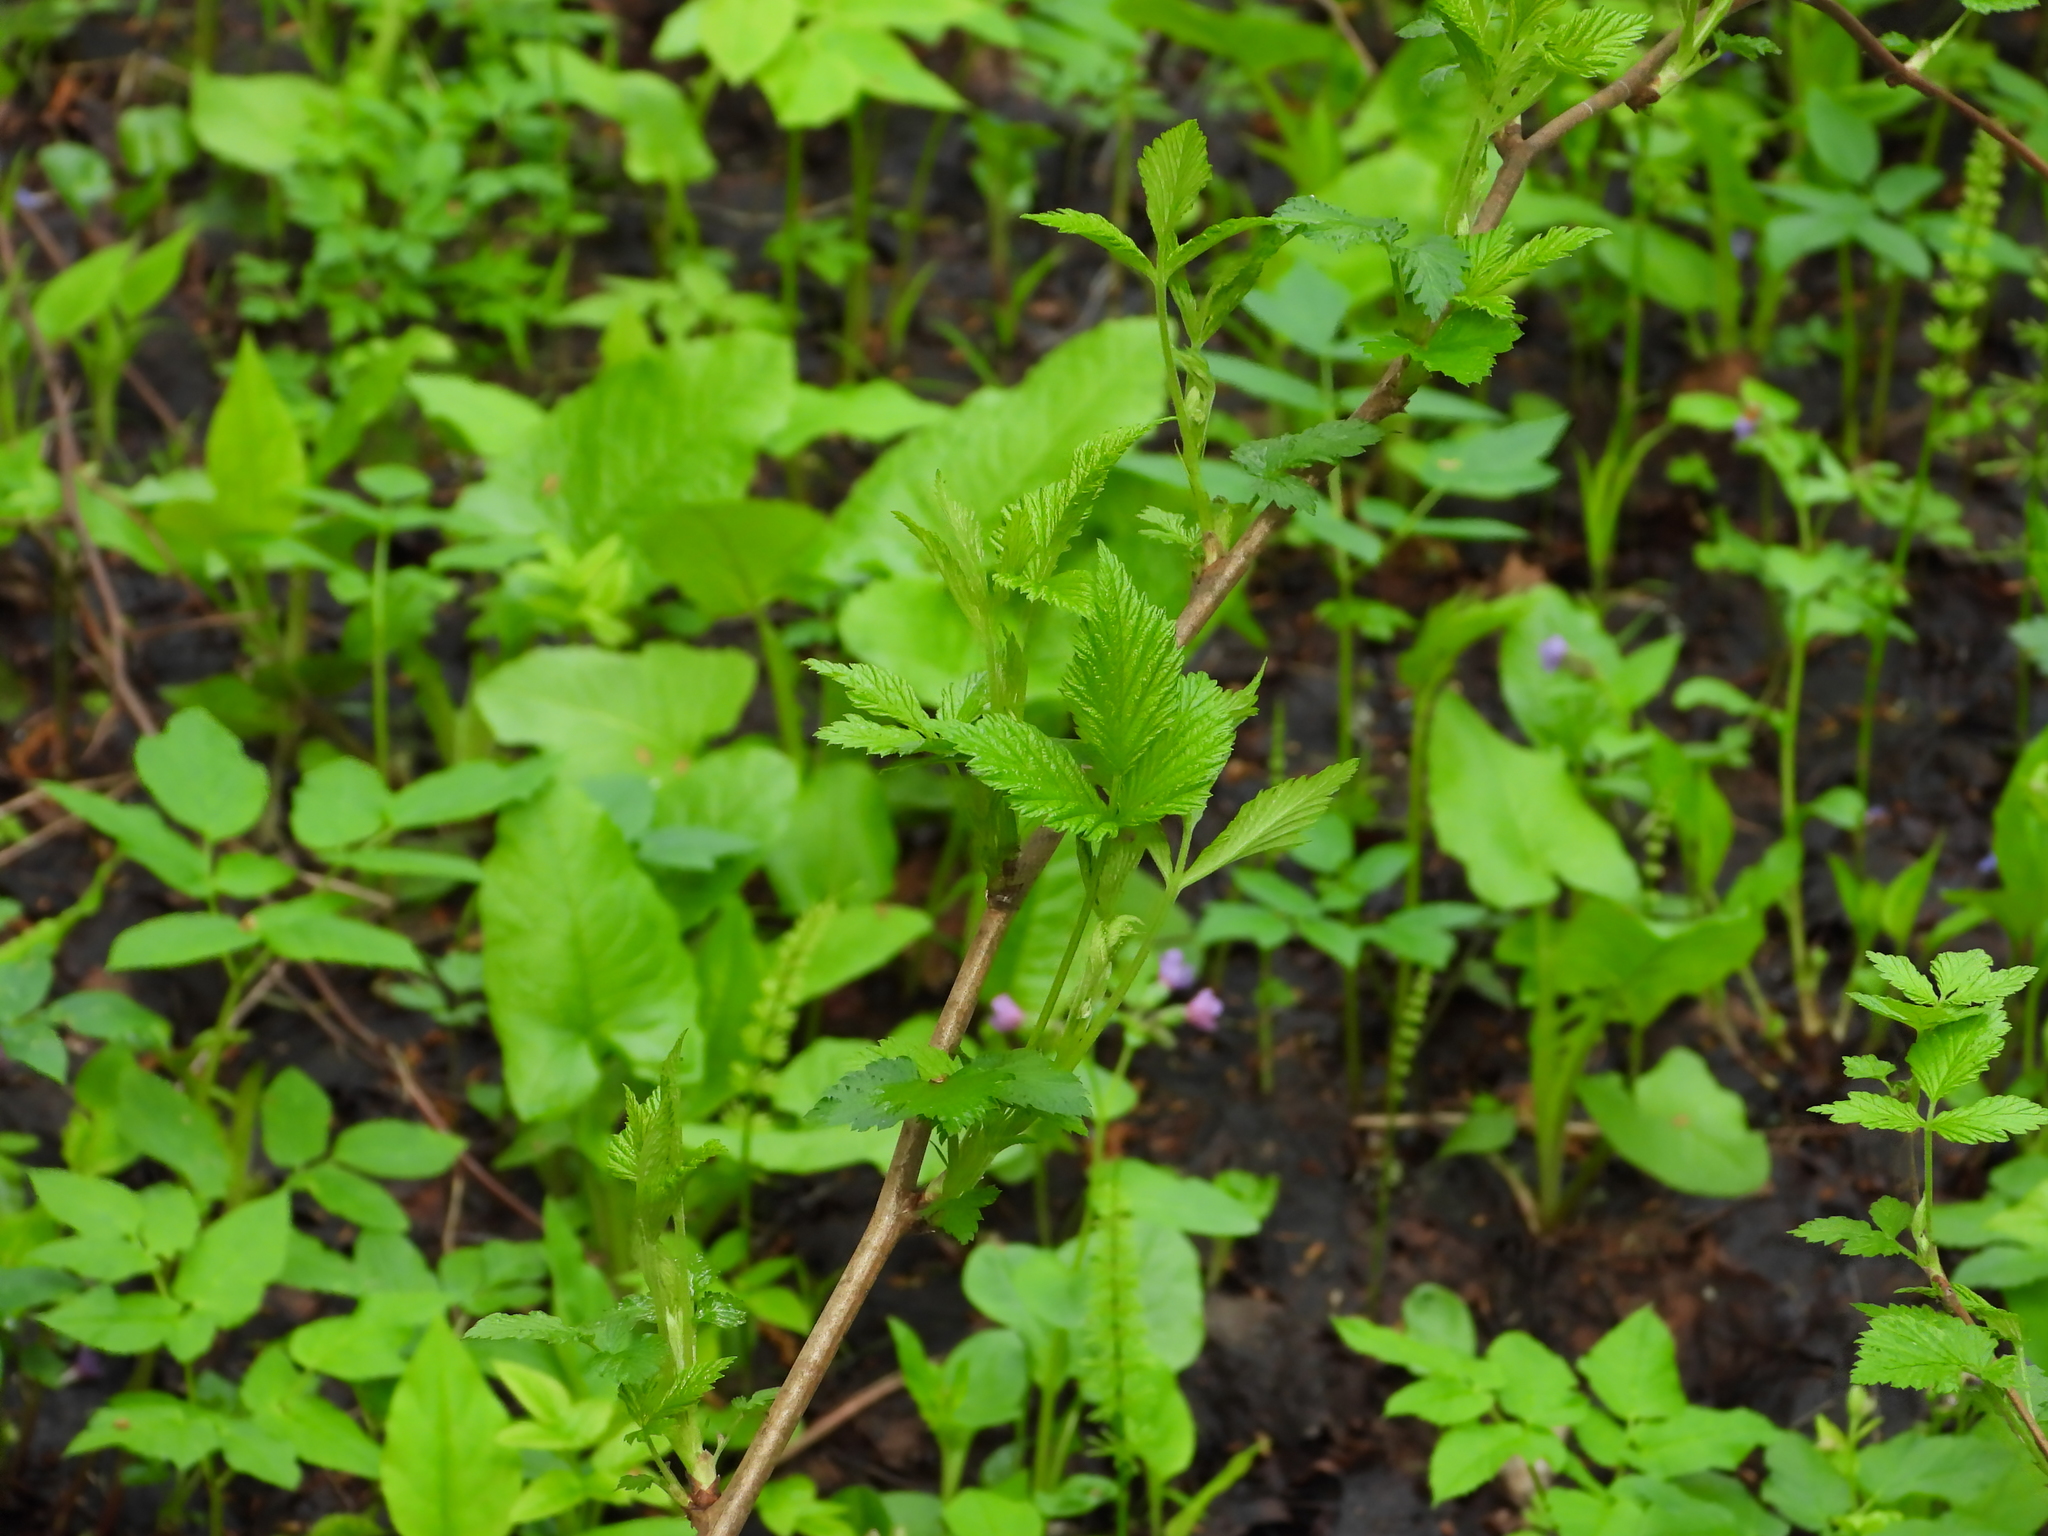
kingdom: Plantae
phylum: Tracheophyta
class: Magnoliopsida
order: Rosales
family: Rosaceae
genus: Rubus
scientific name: Rubus idaeus
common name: Raspberry
